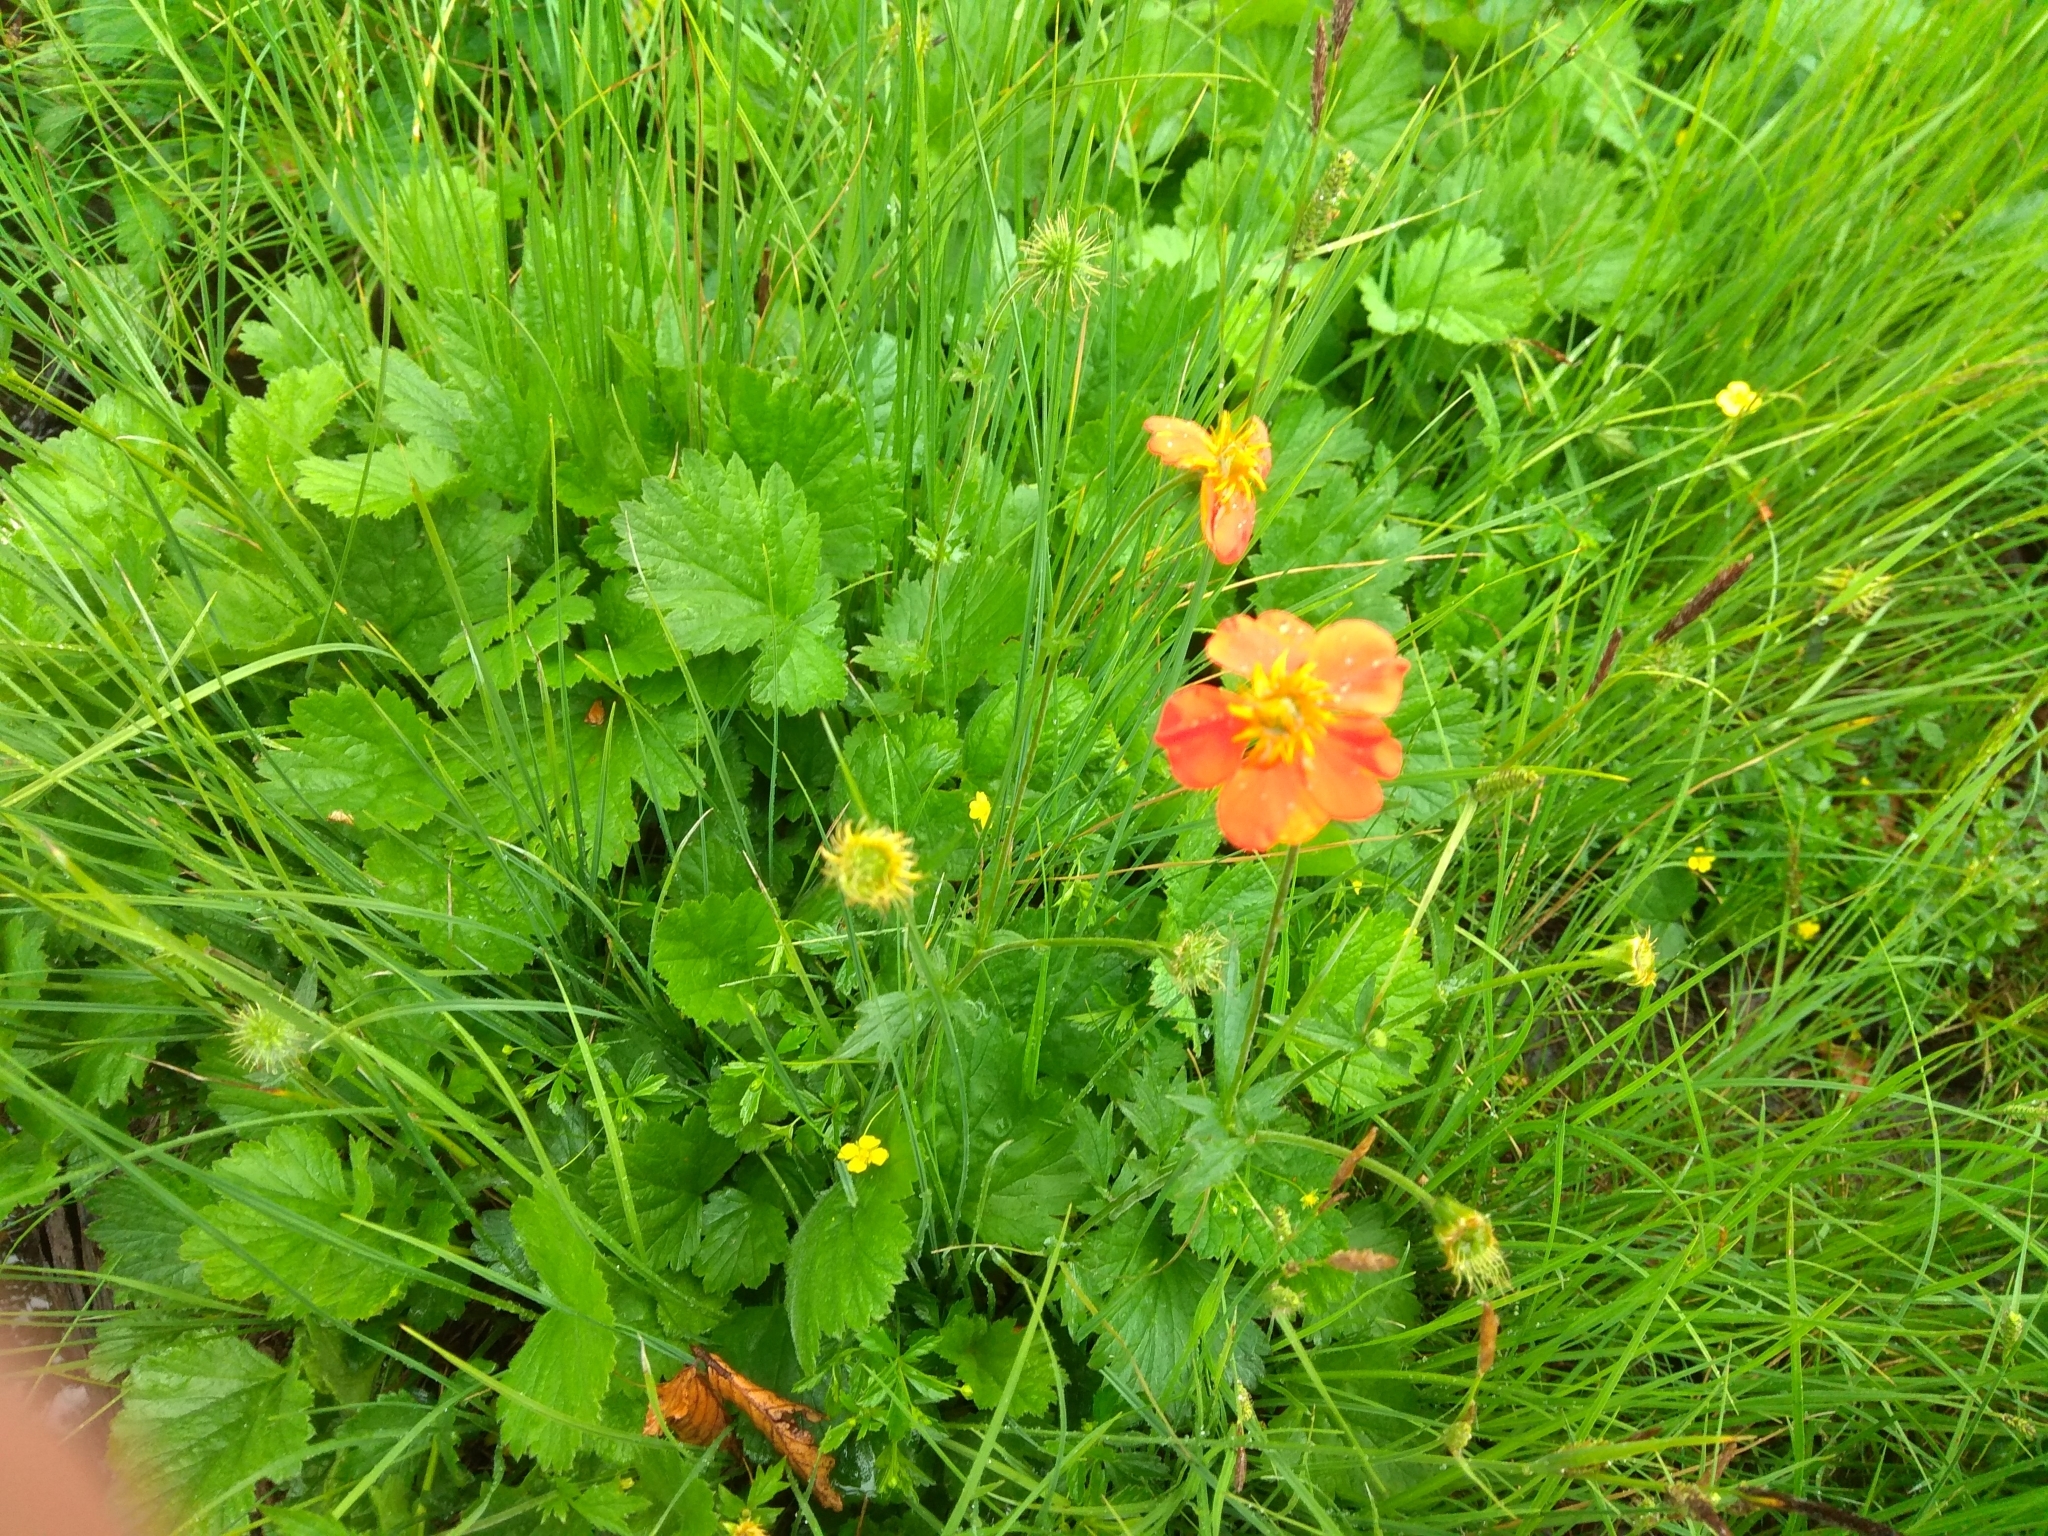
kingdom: Plantae
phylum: Tracheophyta
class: Magnoliopsida
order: Rosales
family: Rosaceae
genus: Geum
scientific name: Geum coccineum
